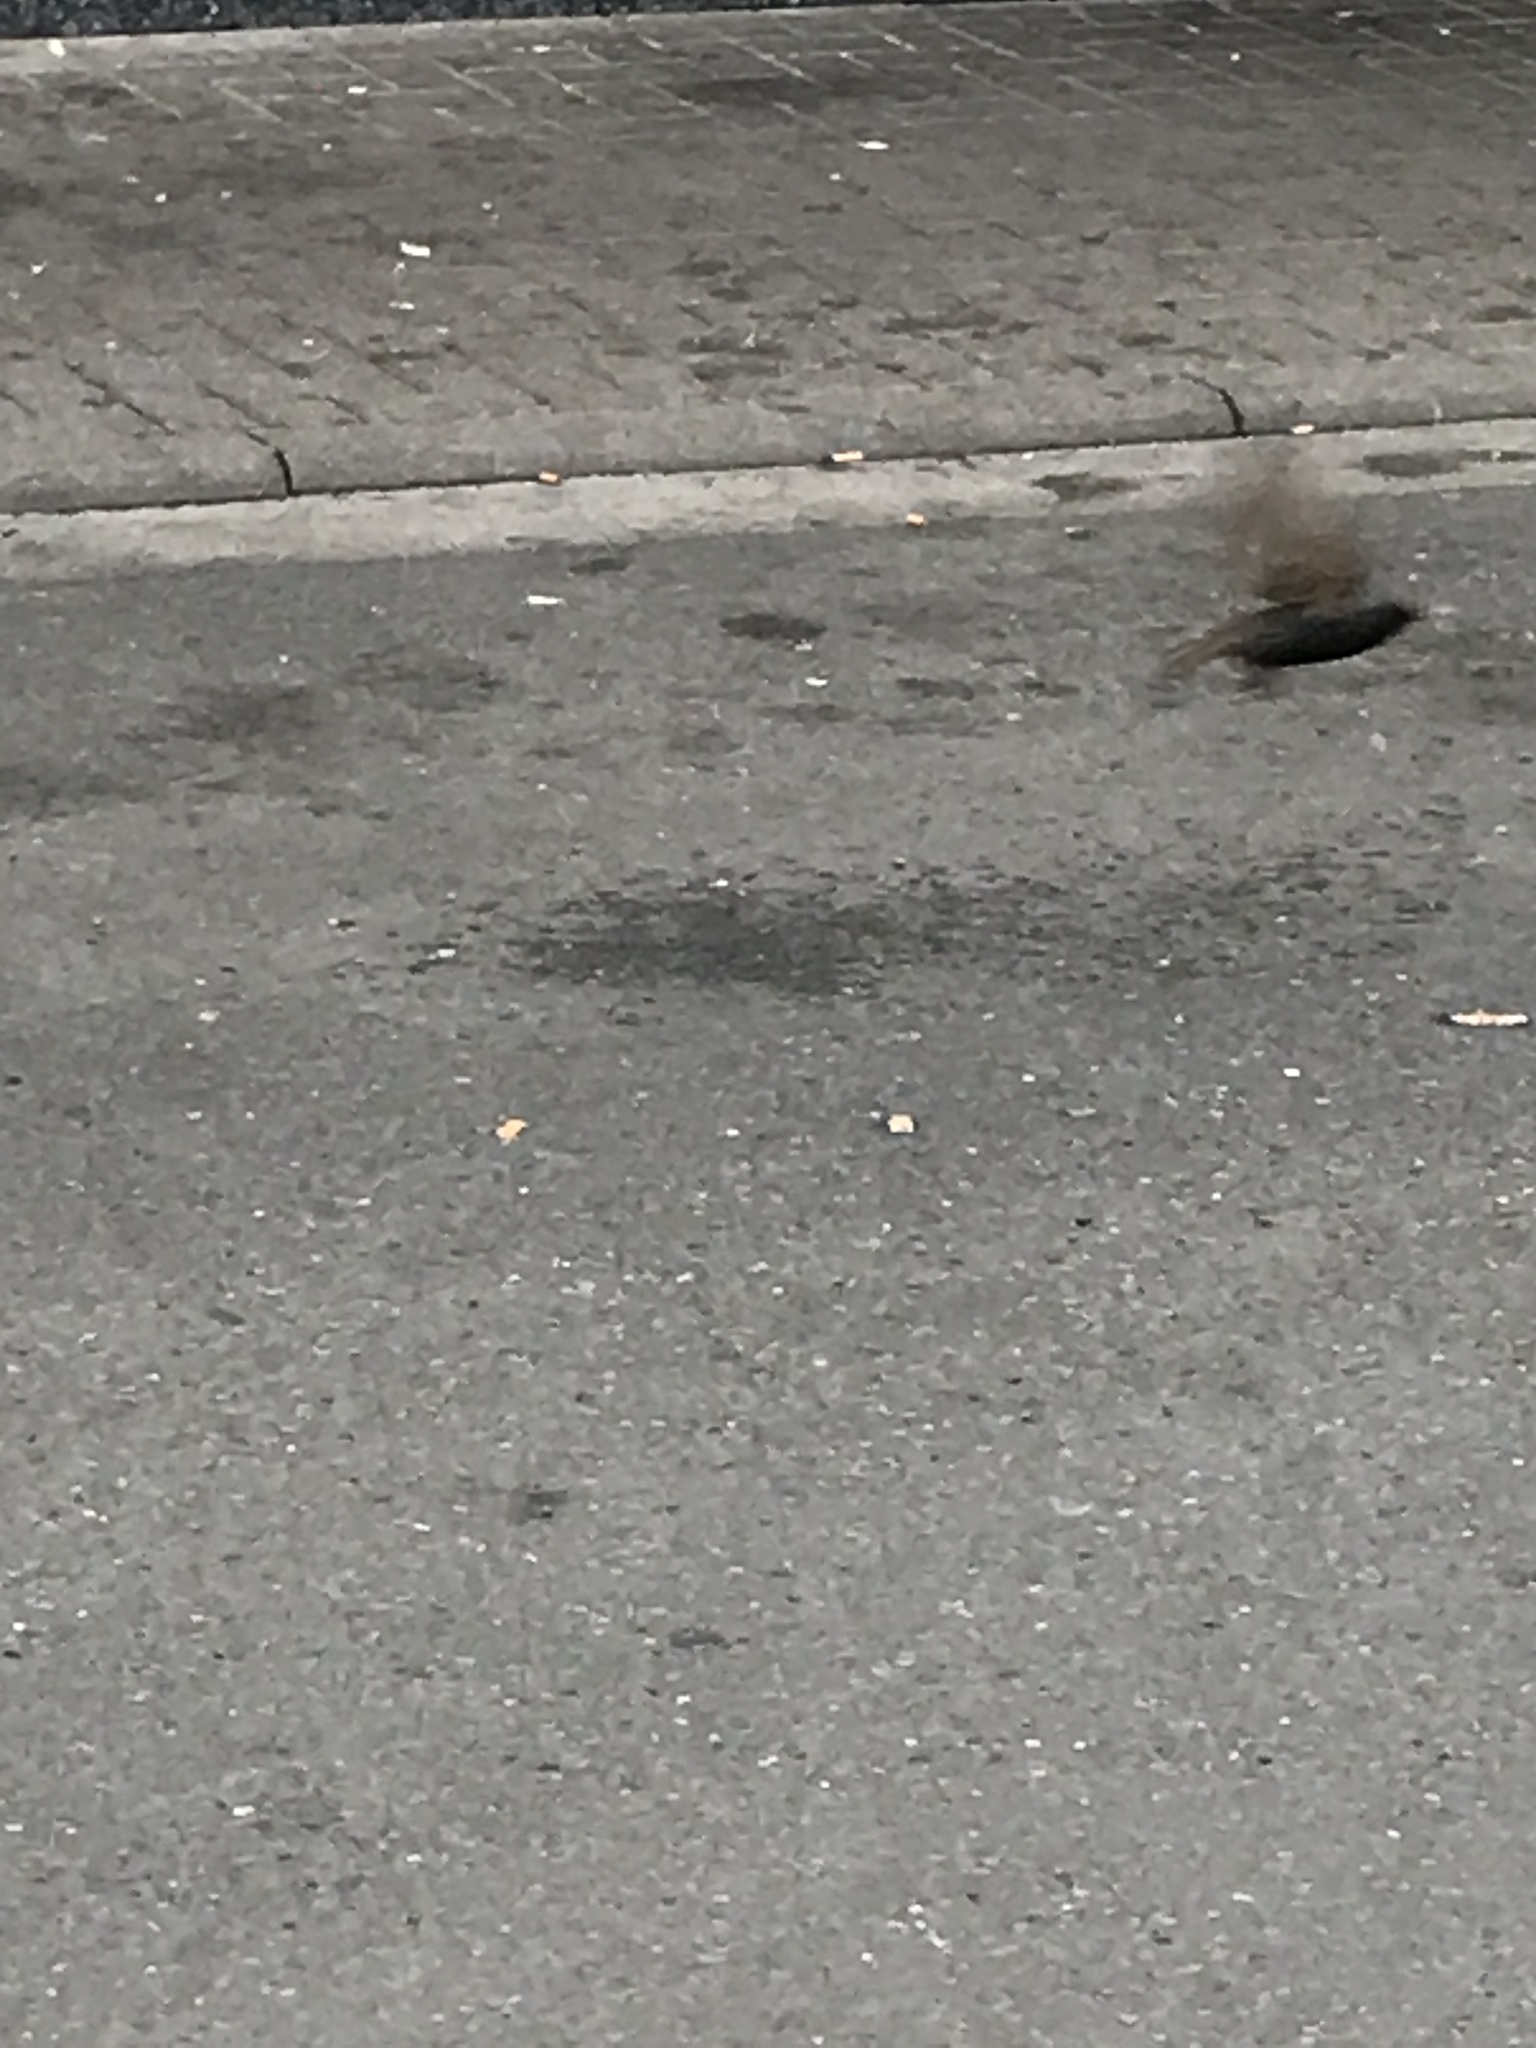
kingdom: Animalia
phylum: Chordata
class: Aves
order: Passeriformes
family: Sturnidae
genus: Sturnus
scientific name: Sturnus vulgaris
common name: Common starling
